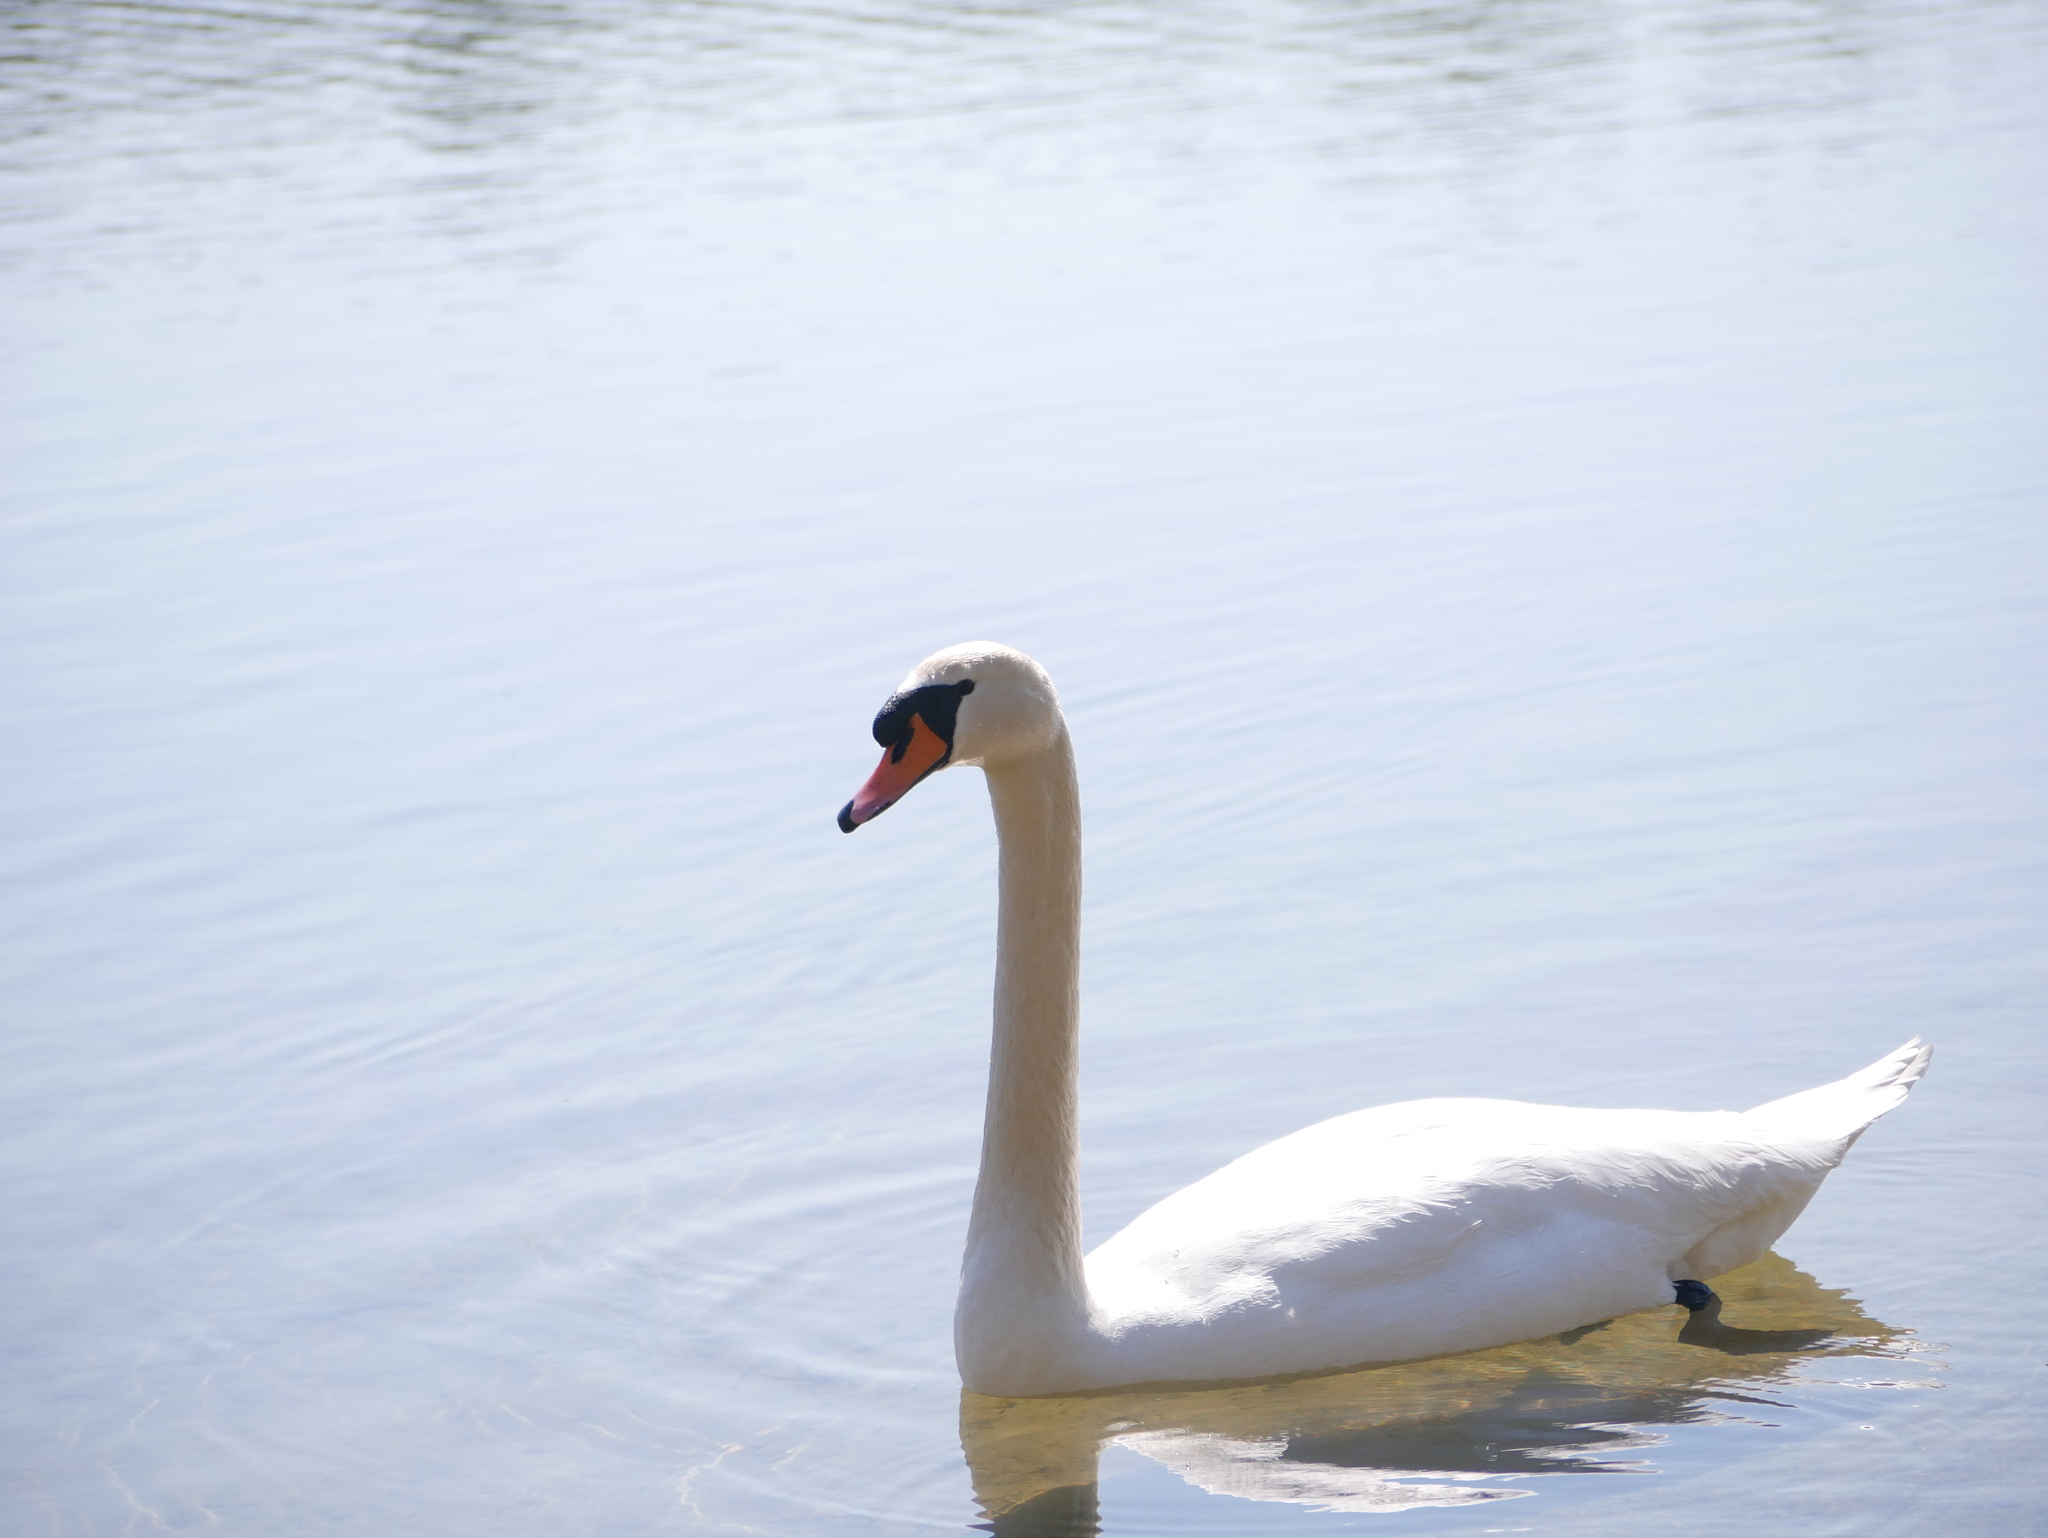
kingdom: Animalia
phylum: Chordata
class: Aves
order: Anseriformes
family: Anatidae
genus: Cygnus
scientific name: Cygnus olor
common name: Mute swan
